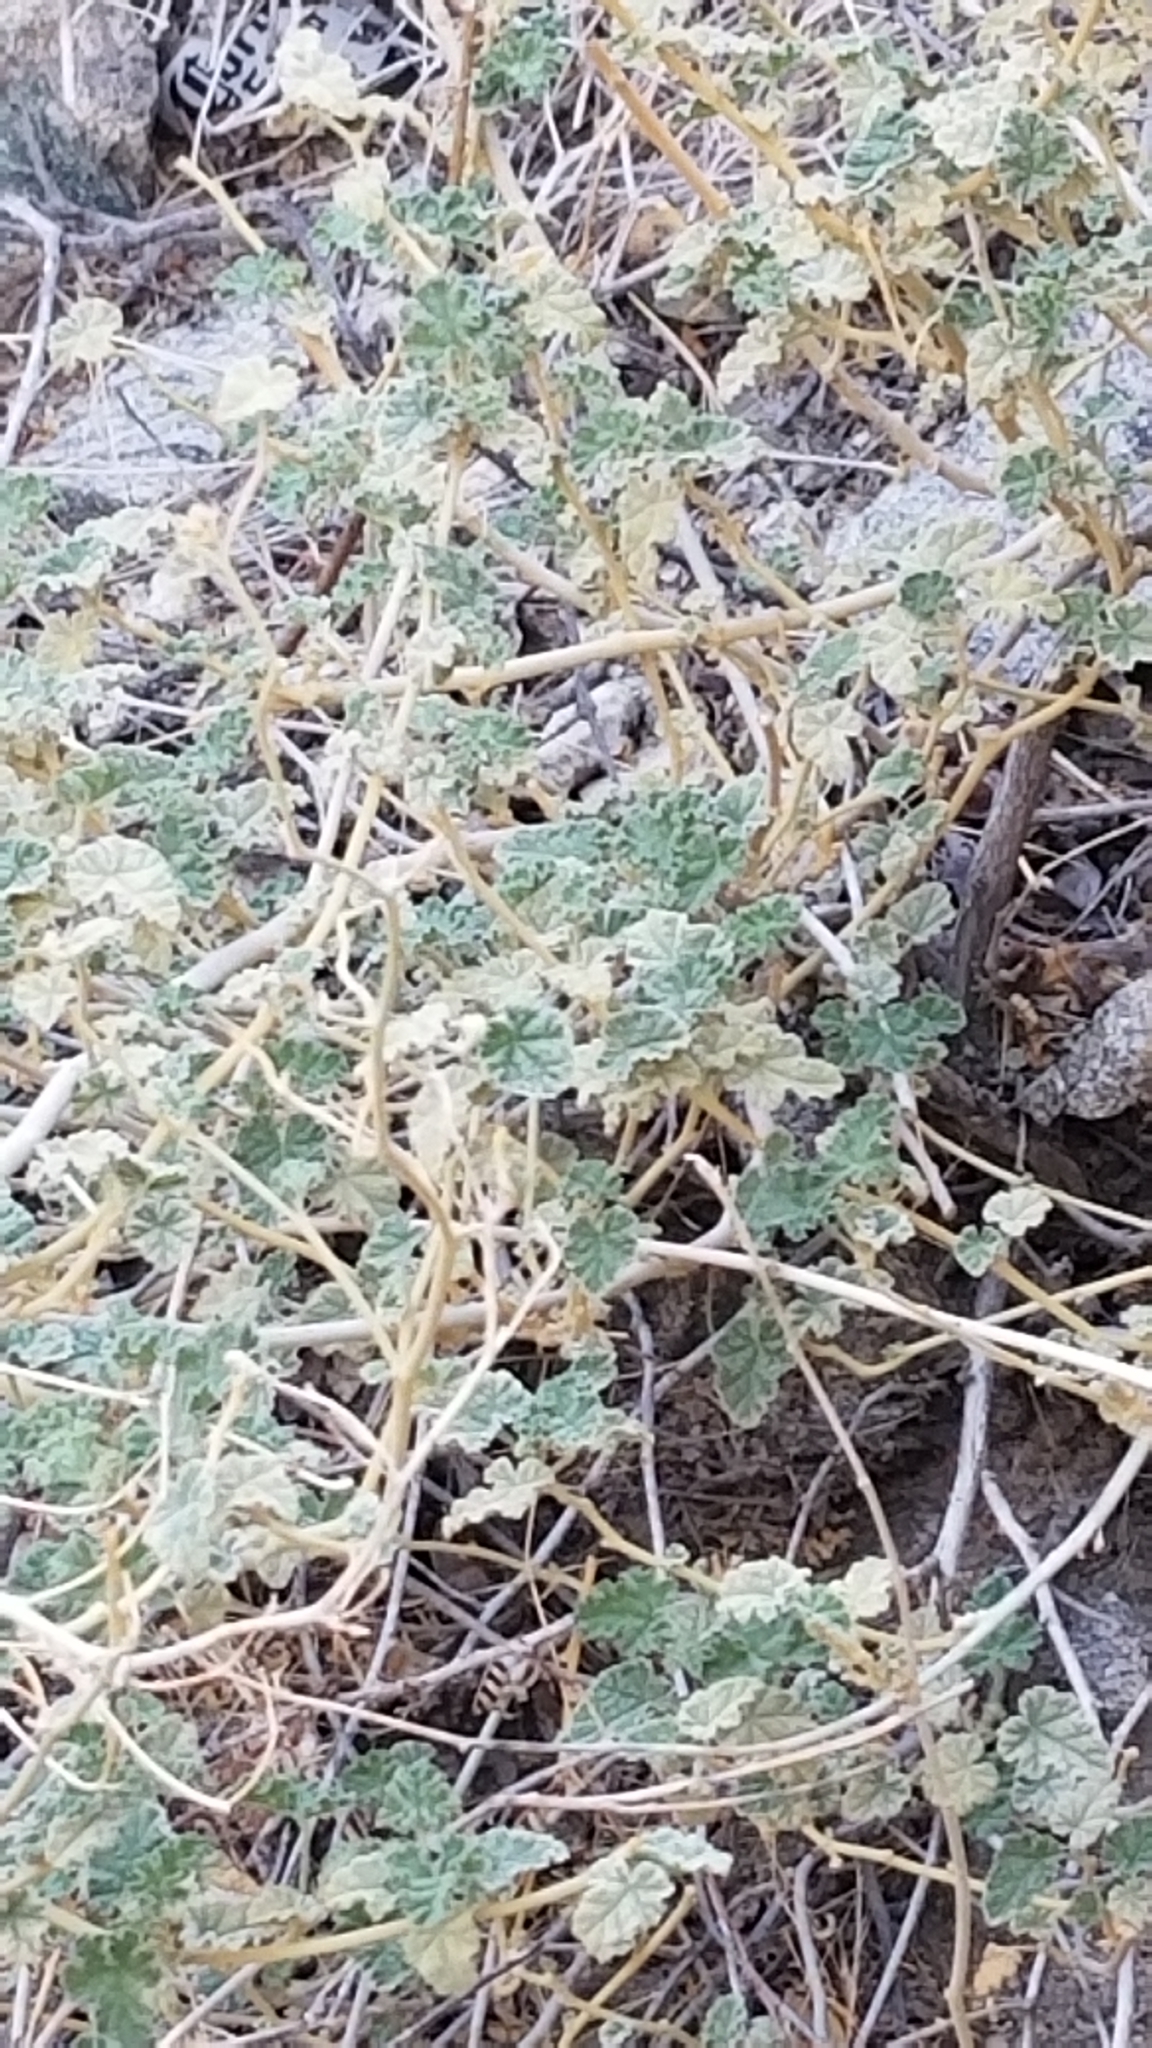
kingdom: Plantae
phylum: Tracheophyta
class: Magnoliopsida
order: Malvales
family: Malvaceae
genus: Sphaeralcea
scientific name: Sphaeralcea ambigua
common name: Apricot globe-mallow
